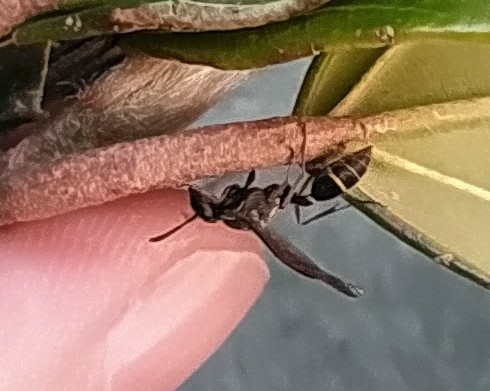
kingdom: Animalia
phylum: Arthropoda
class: Insecta
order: Hymenoptera
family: Eumenidae
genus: Polybia
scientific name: Polybia platycephala
